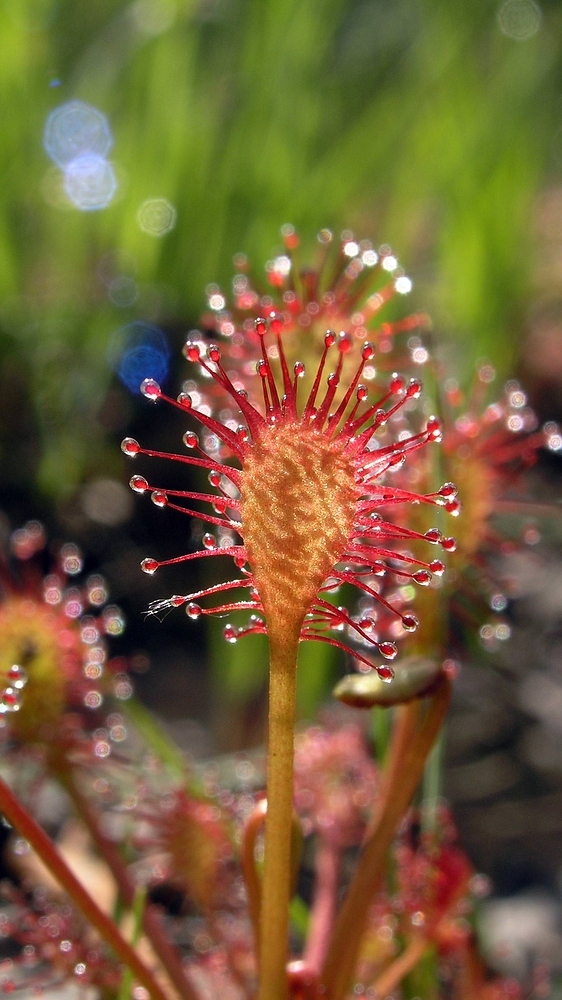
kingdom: Plantae
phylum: Tracheophyta
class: Magnoliopsida
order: Caryophyllales
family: Droseraceae
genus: Drosera
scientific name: Drosera intermedia
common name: Oblong-leaved sundew
